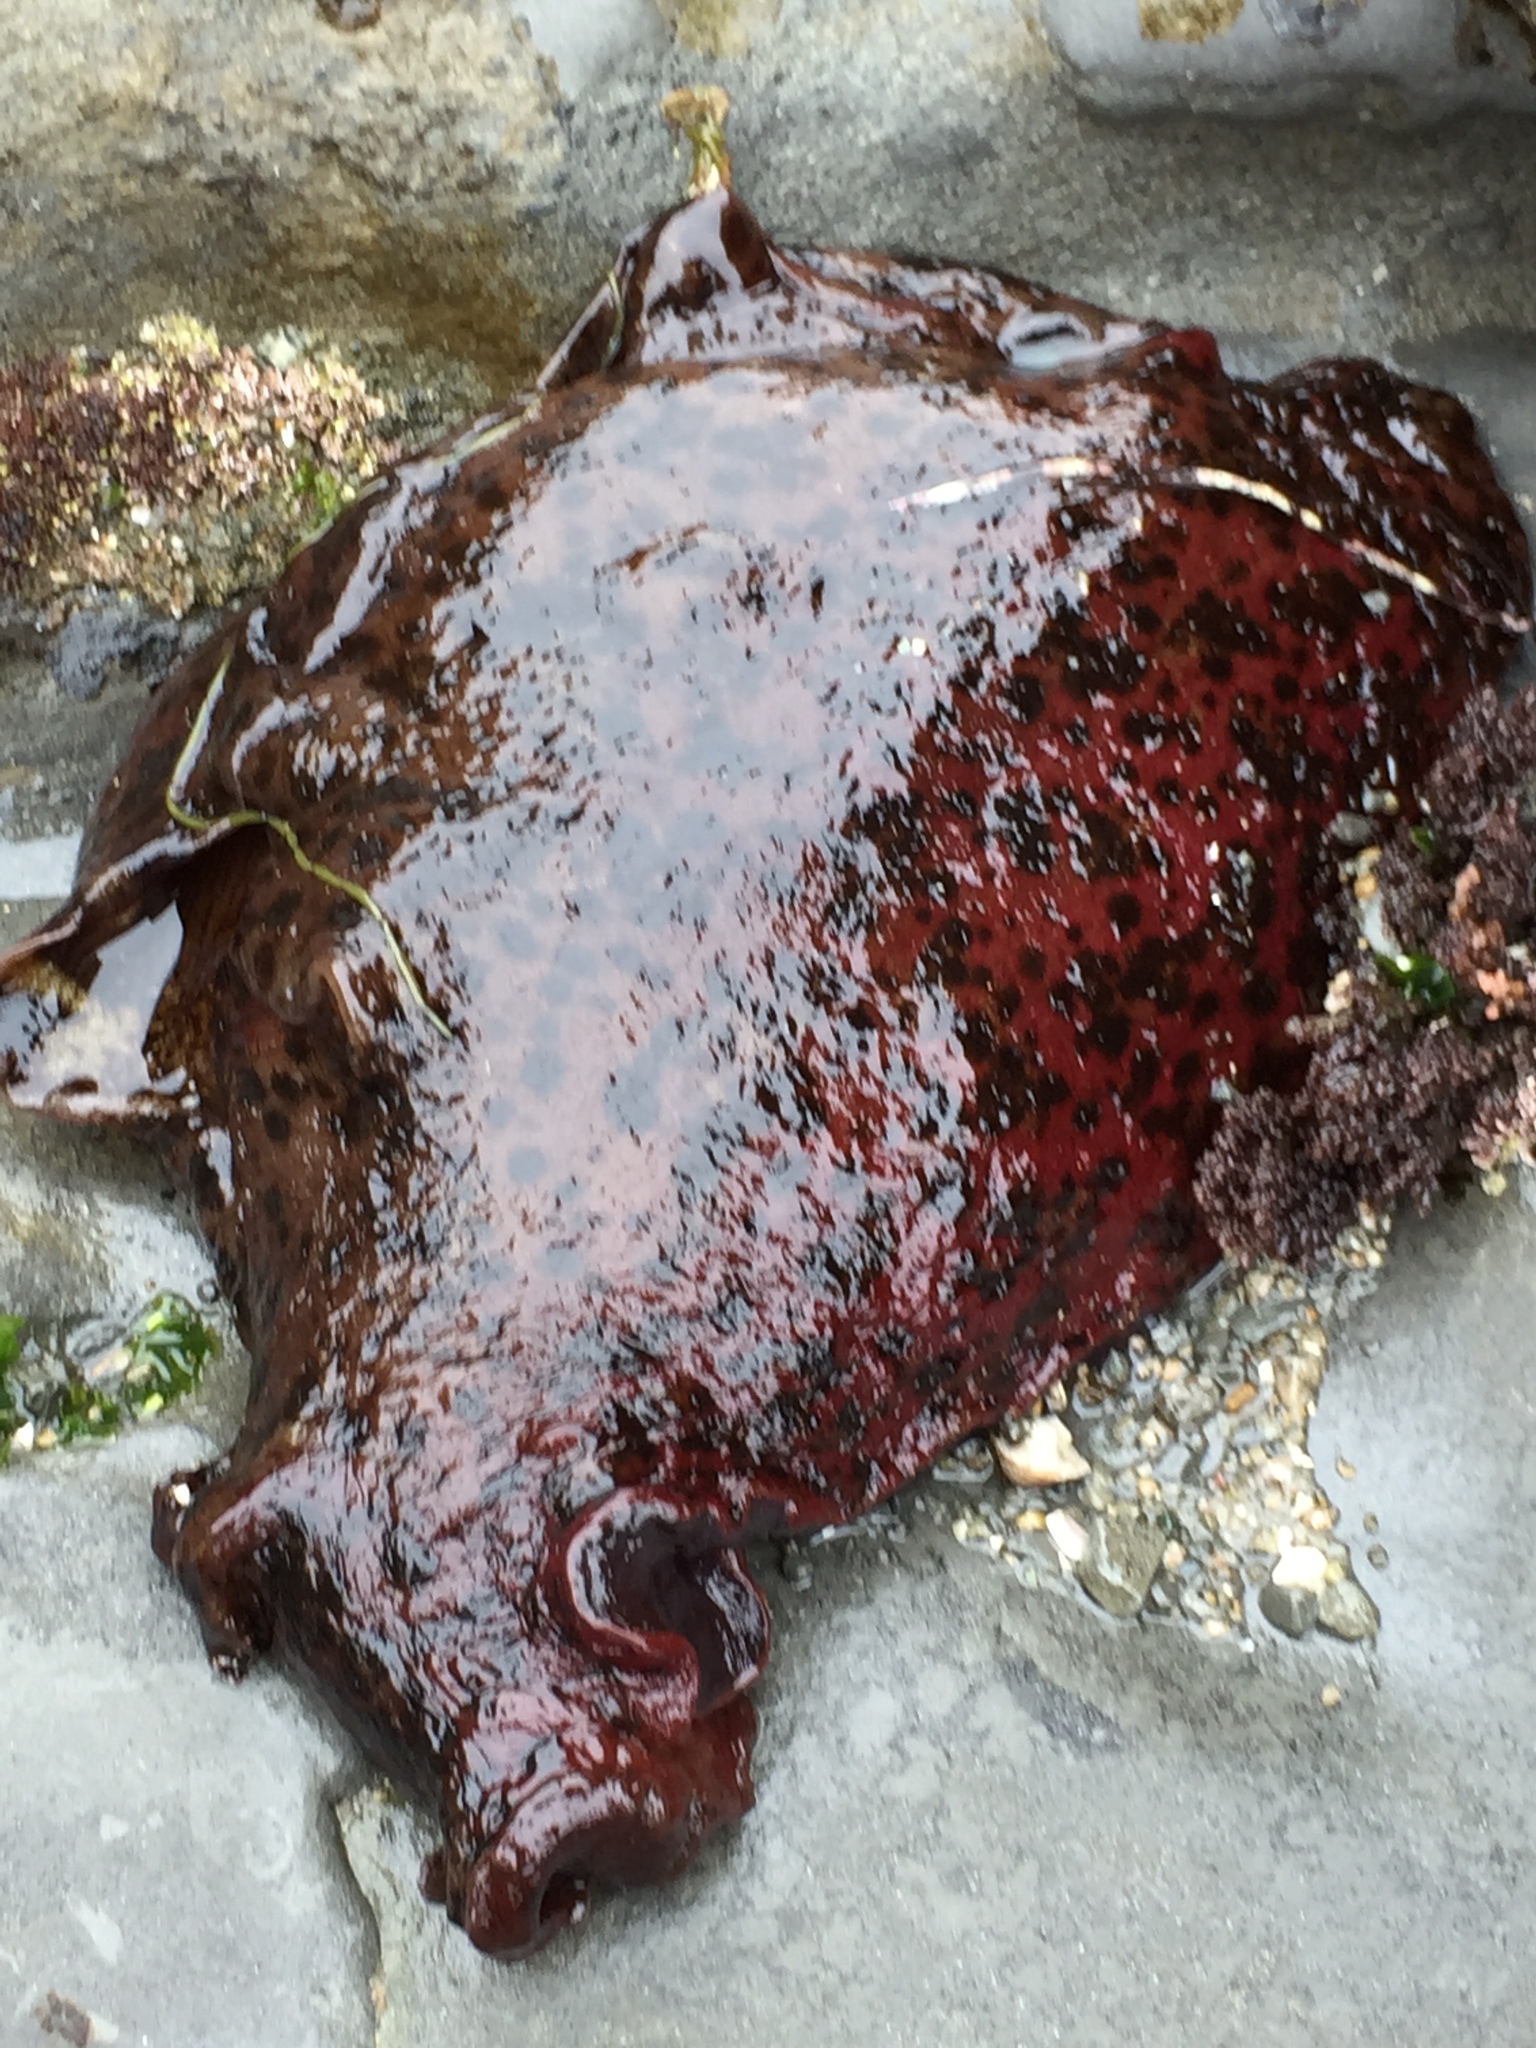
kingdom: Animalia
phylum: Mollusca
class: Gastropoda
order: Aplysiida
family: Aplysiidae
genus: Aplysia
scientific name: Aplysia californica
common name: California seahare
